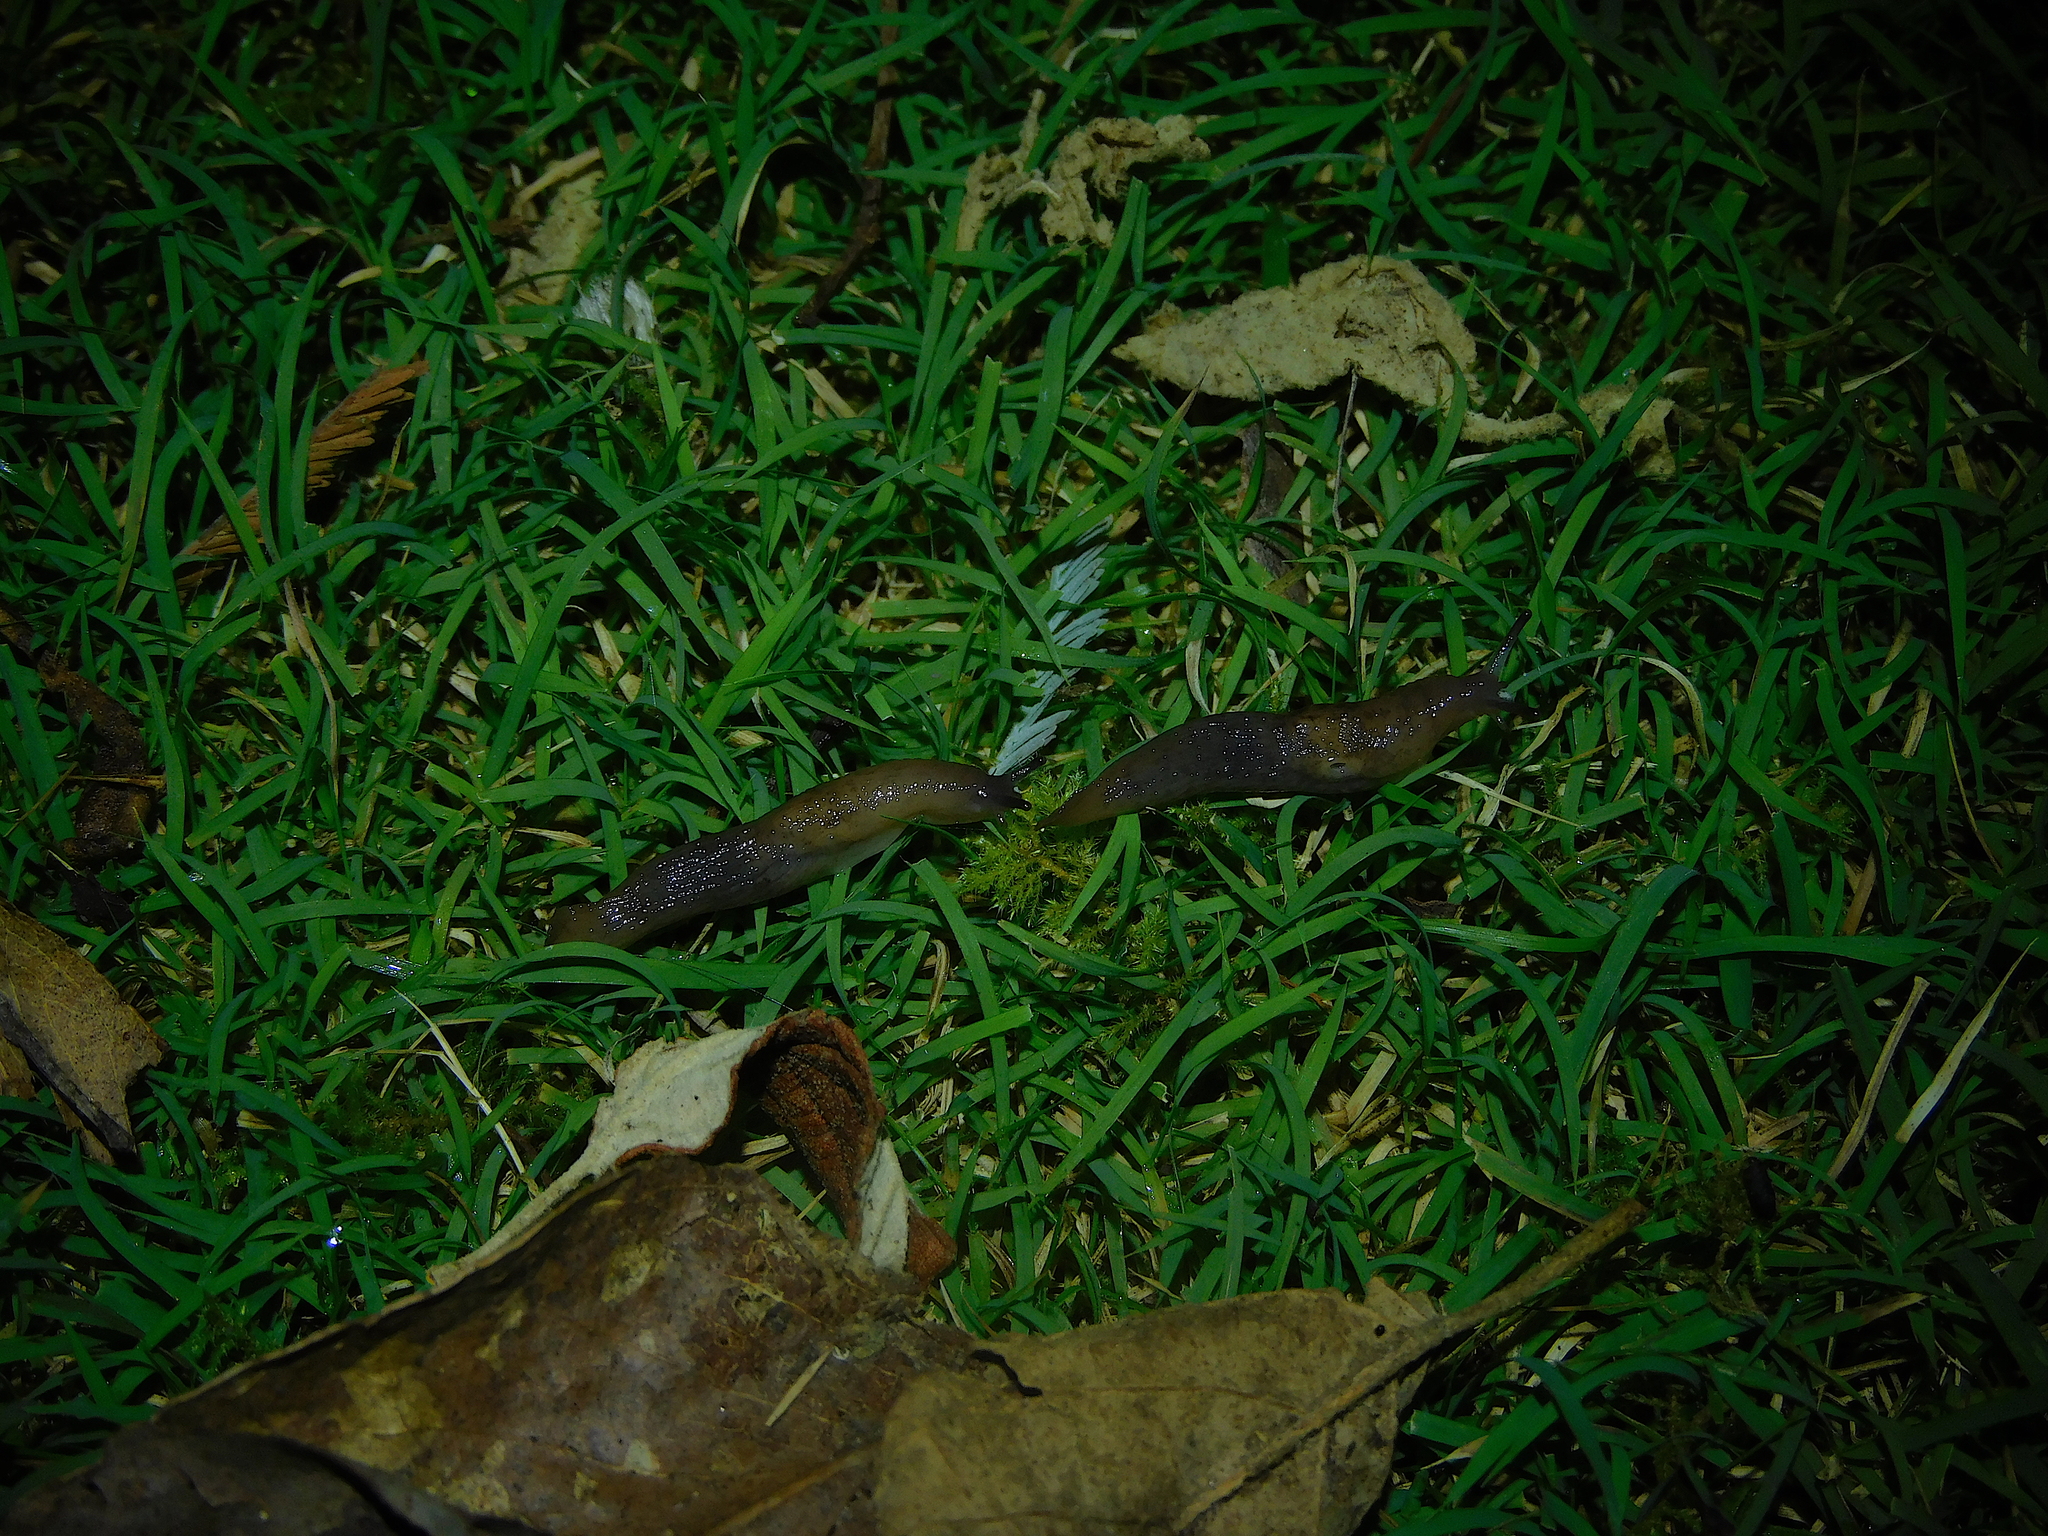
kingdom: Animalia
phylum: Mollusca
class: Gastropoda
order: Stylommatophora
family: Agriolimacidae
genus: Deroceras
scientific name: Deroceras invadens
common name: Caruana's slug
